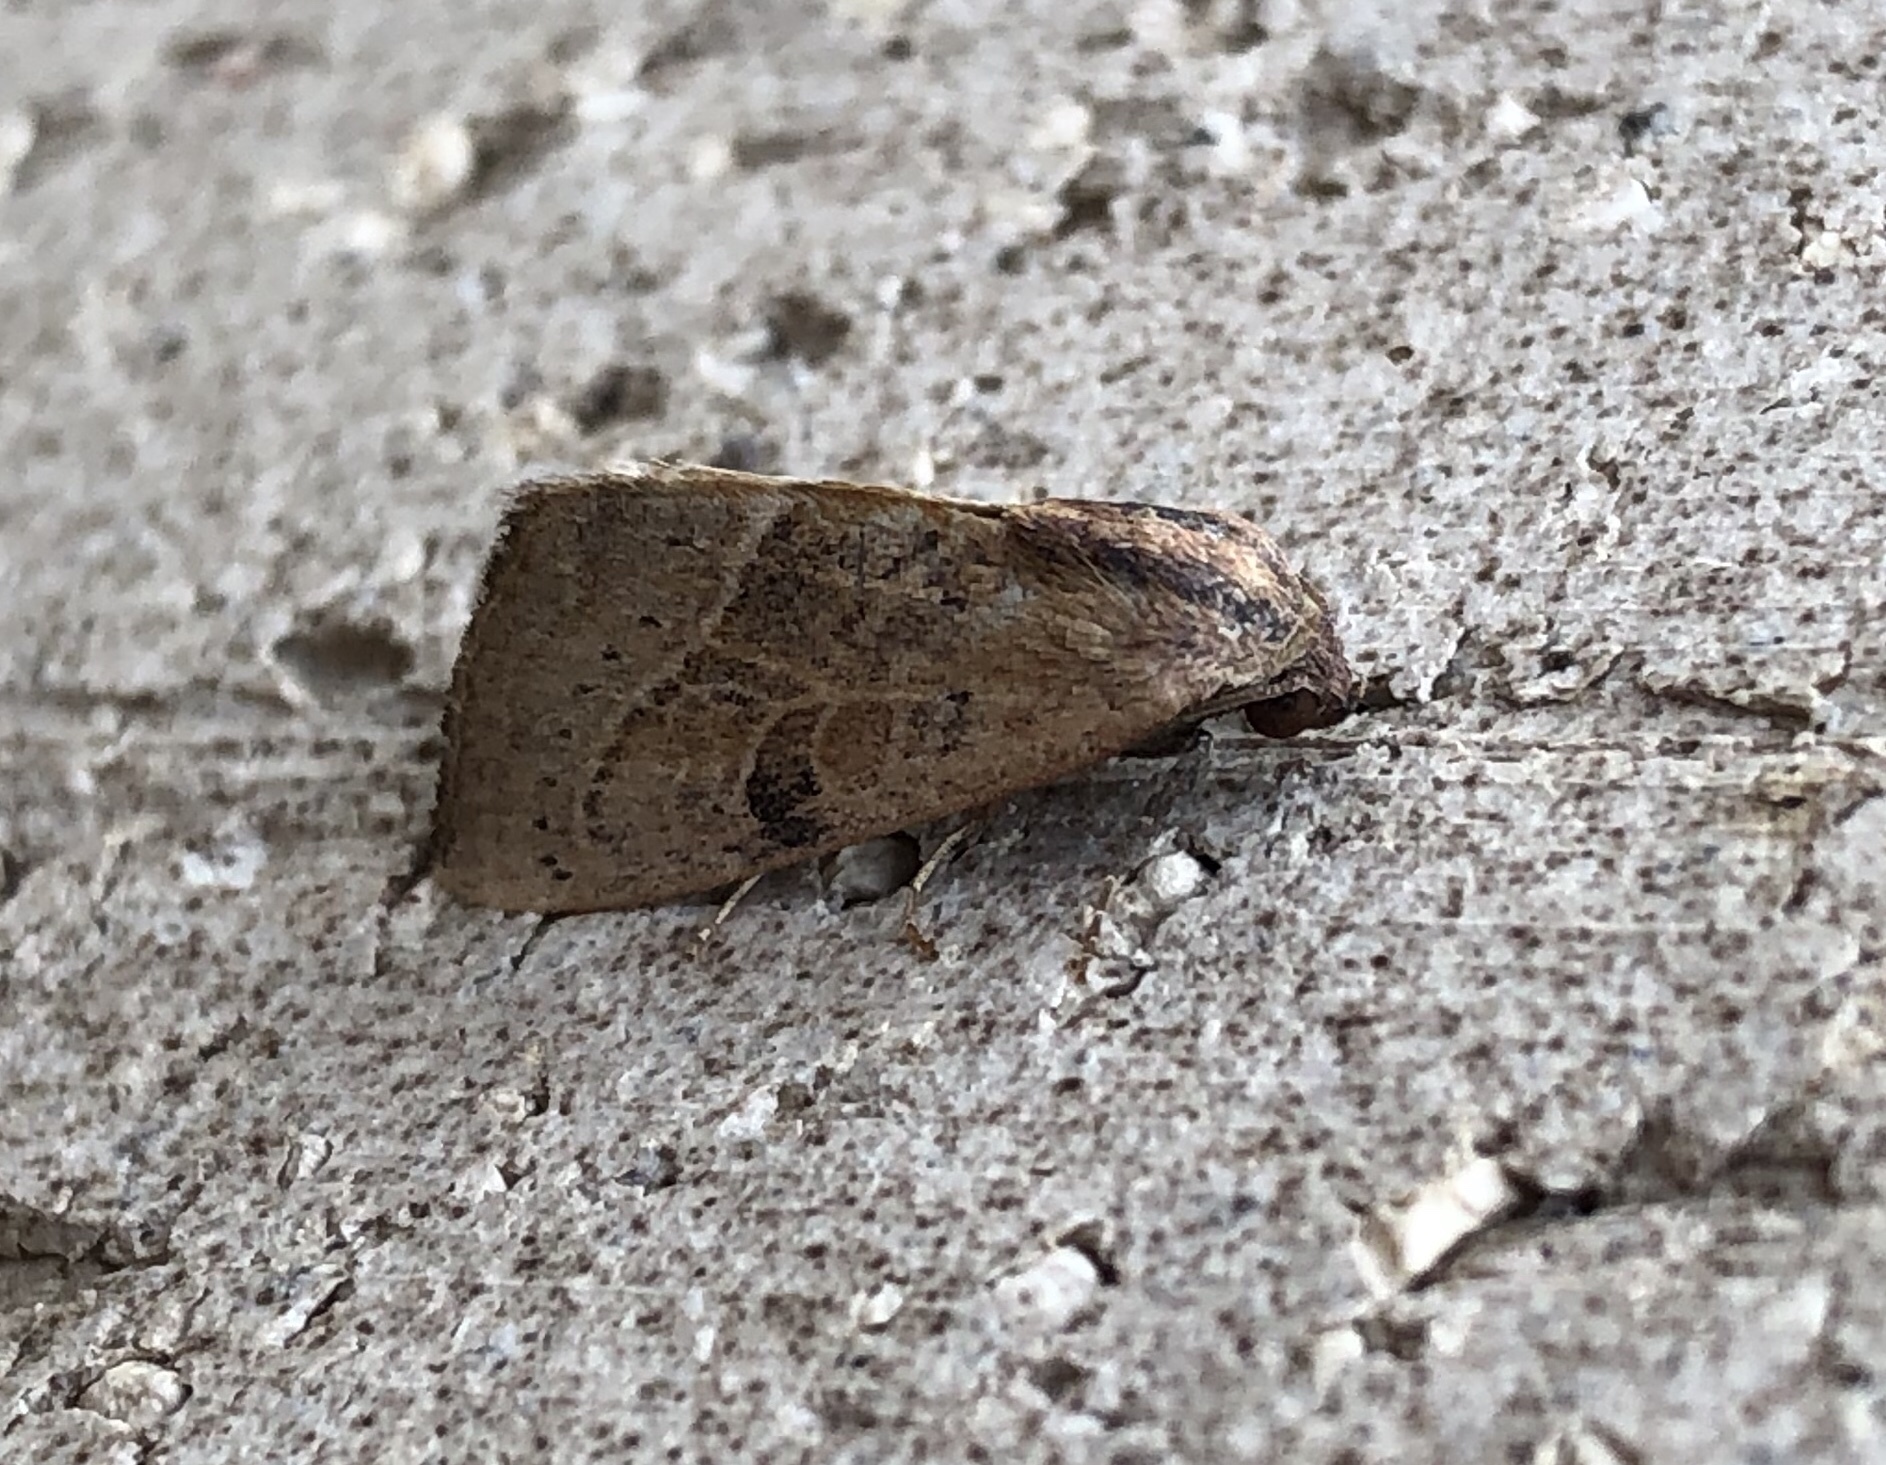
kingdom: Animalia
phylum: Arthropoda
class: Insecta
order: Lepidoptera
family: Noctuidae
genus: Galgula
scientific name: Galgula partita
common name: Wedgeling
